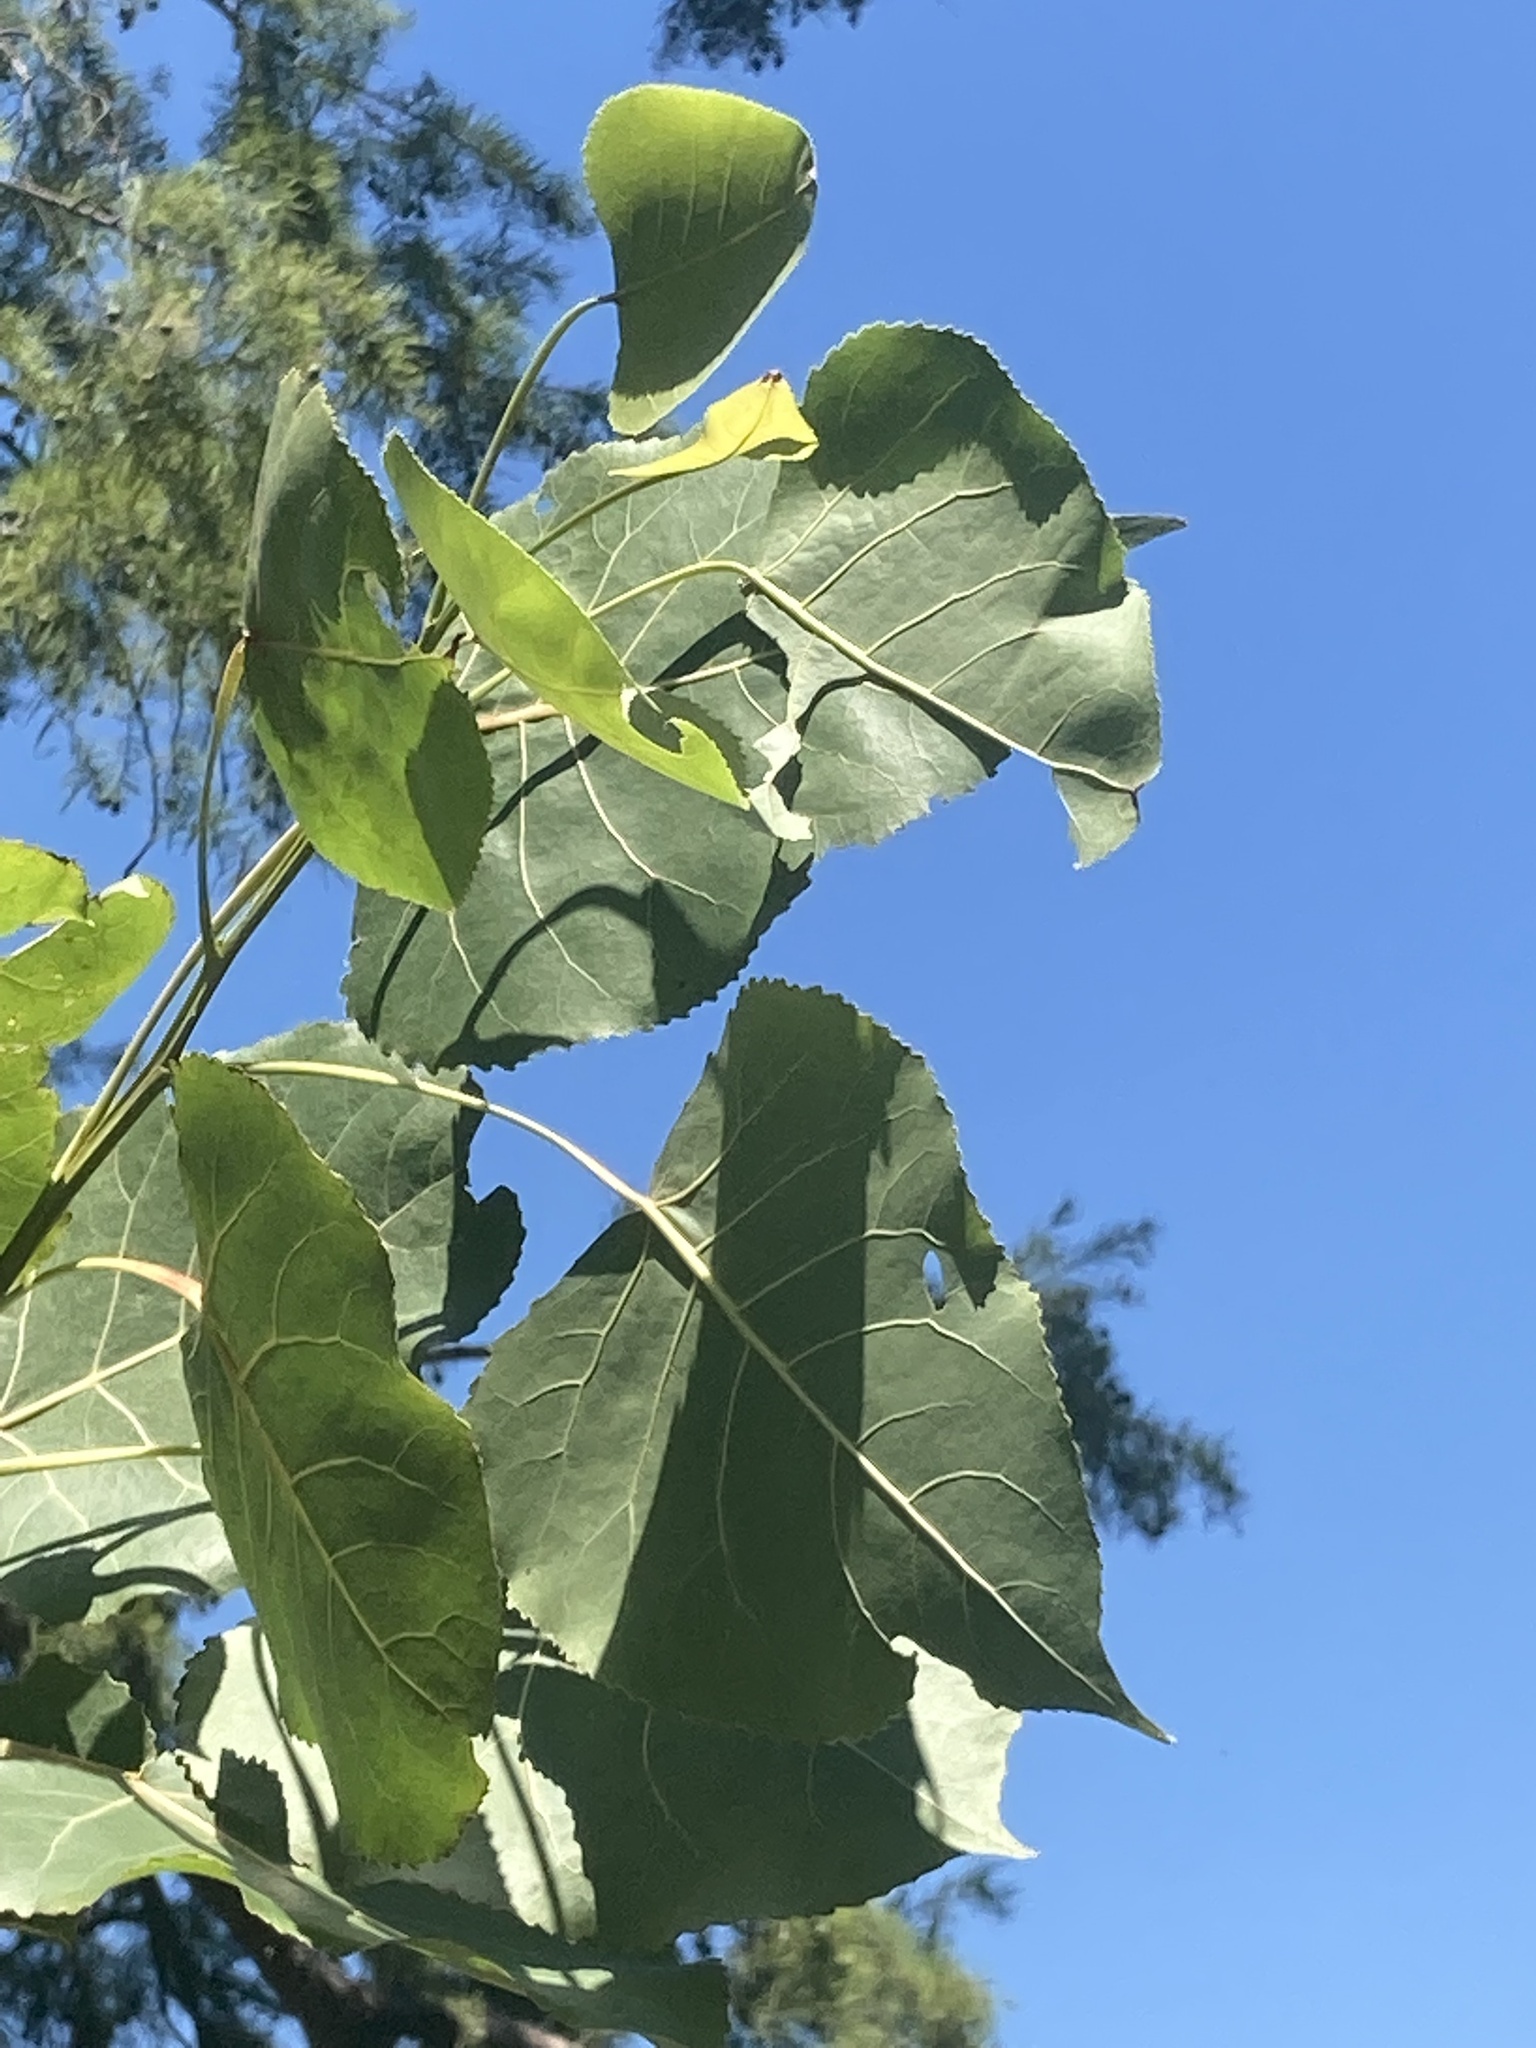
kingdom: Plantae
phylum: Tracheophyta
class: Magnoliopsida
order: Malpighiales
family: Salicaceae
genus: Populus
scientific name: Populus deltoides
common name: Eastern cottonwood
